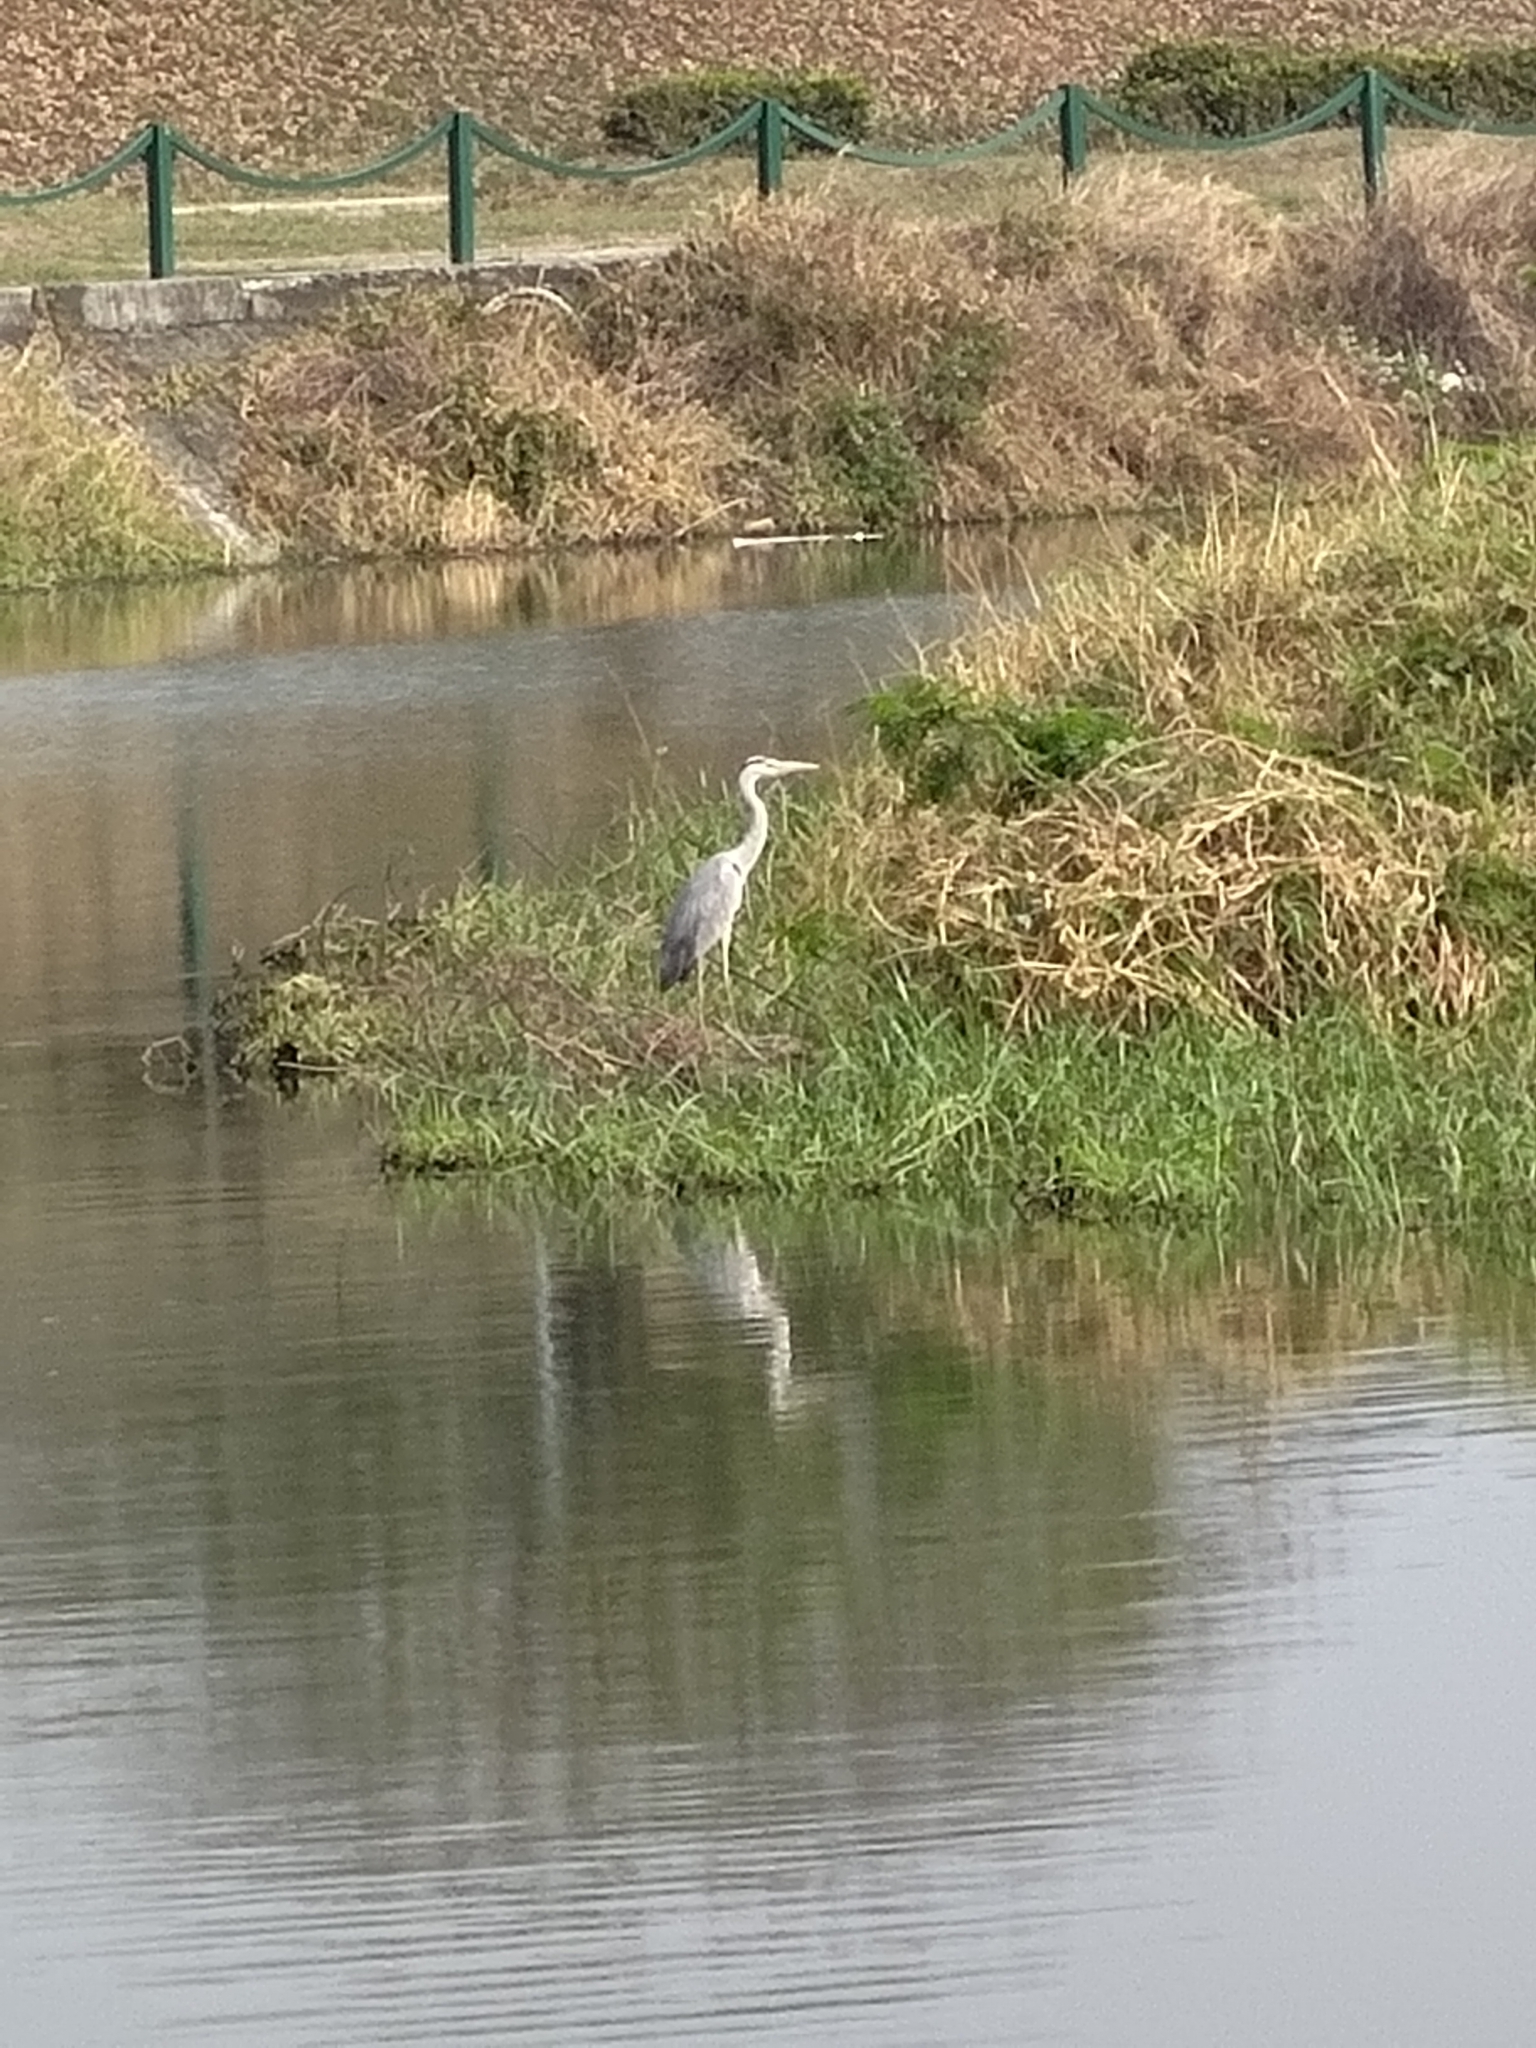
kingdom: Animalia
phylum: Chordata
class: Aves
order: Pelecaniformes
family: Ardeidae
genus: Ardea
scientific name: Ardea cinerea
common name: Grey heron
